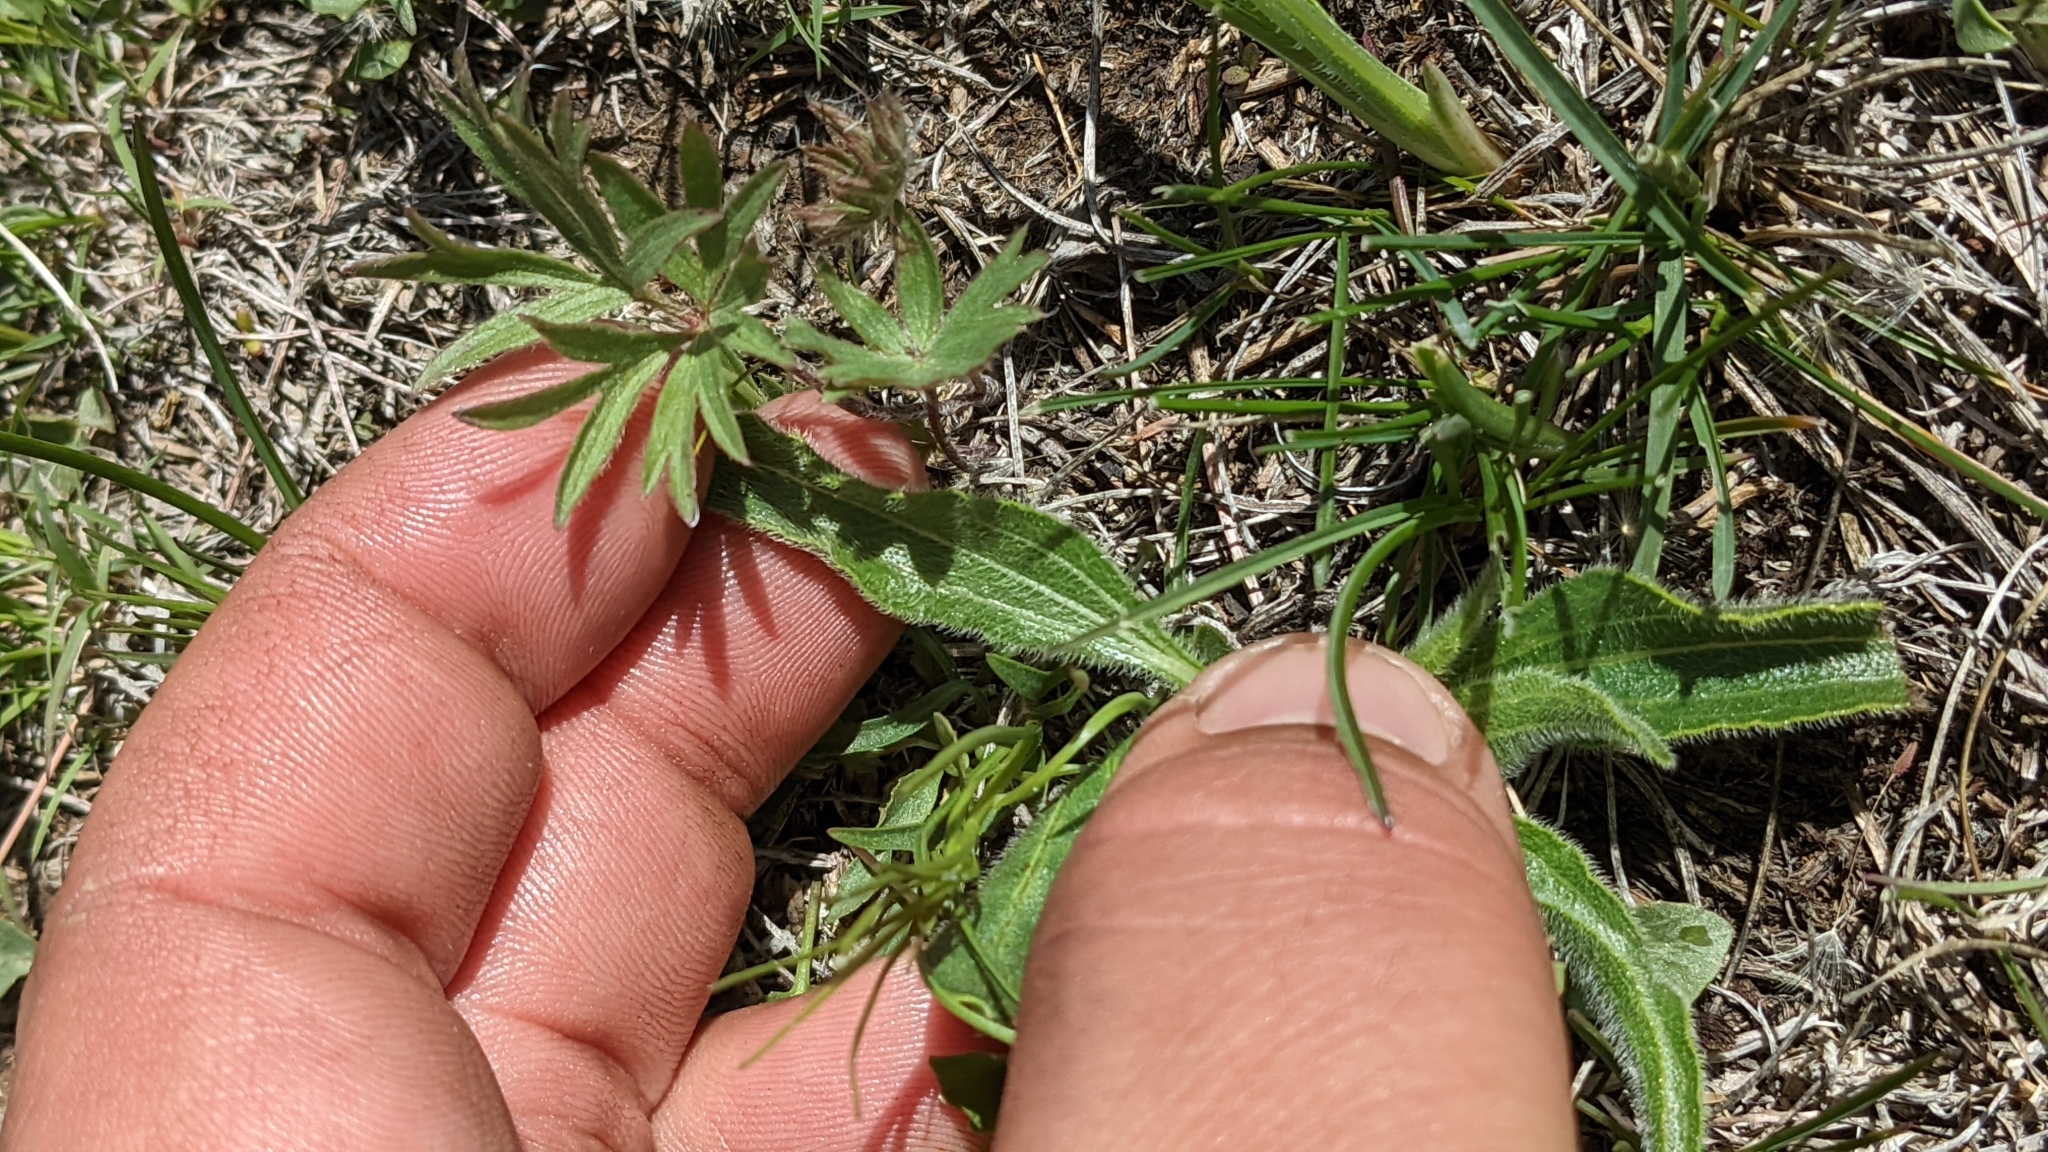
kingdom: Plantae
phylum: Tracheophyta
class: Magnoliopsida
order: Asterales
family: Asteraceae
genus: Echinacea
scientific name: Echinacea angustifolia
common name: Black-sampson echinacea
